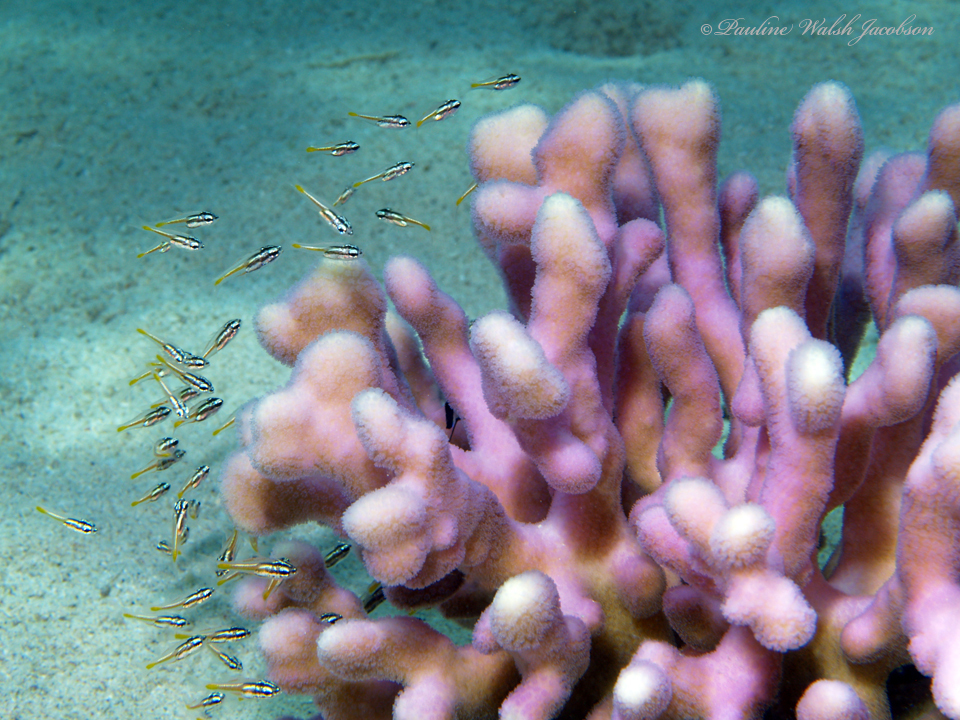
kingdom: Animalia
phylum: Chordata
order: Perciformes
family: Apogonidae
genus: Ostorhinchus
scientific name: Ostorhinchus cyanosoma
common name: Yellow-striped cardinalfish
